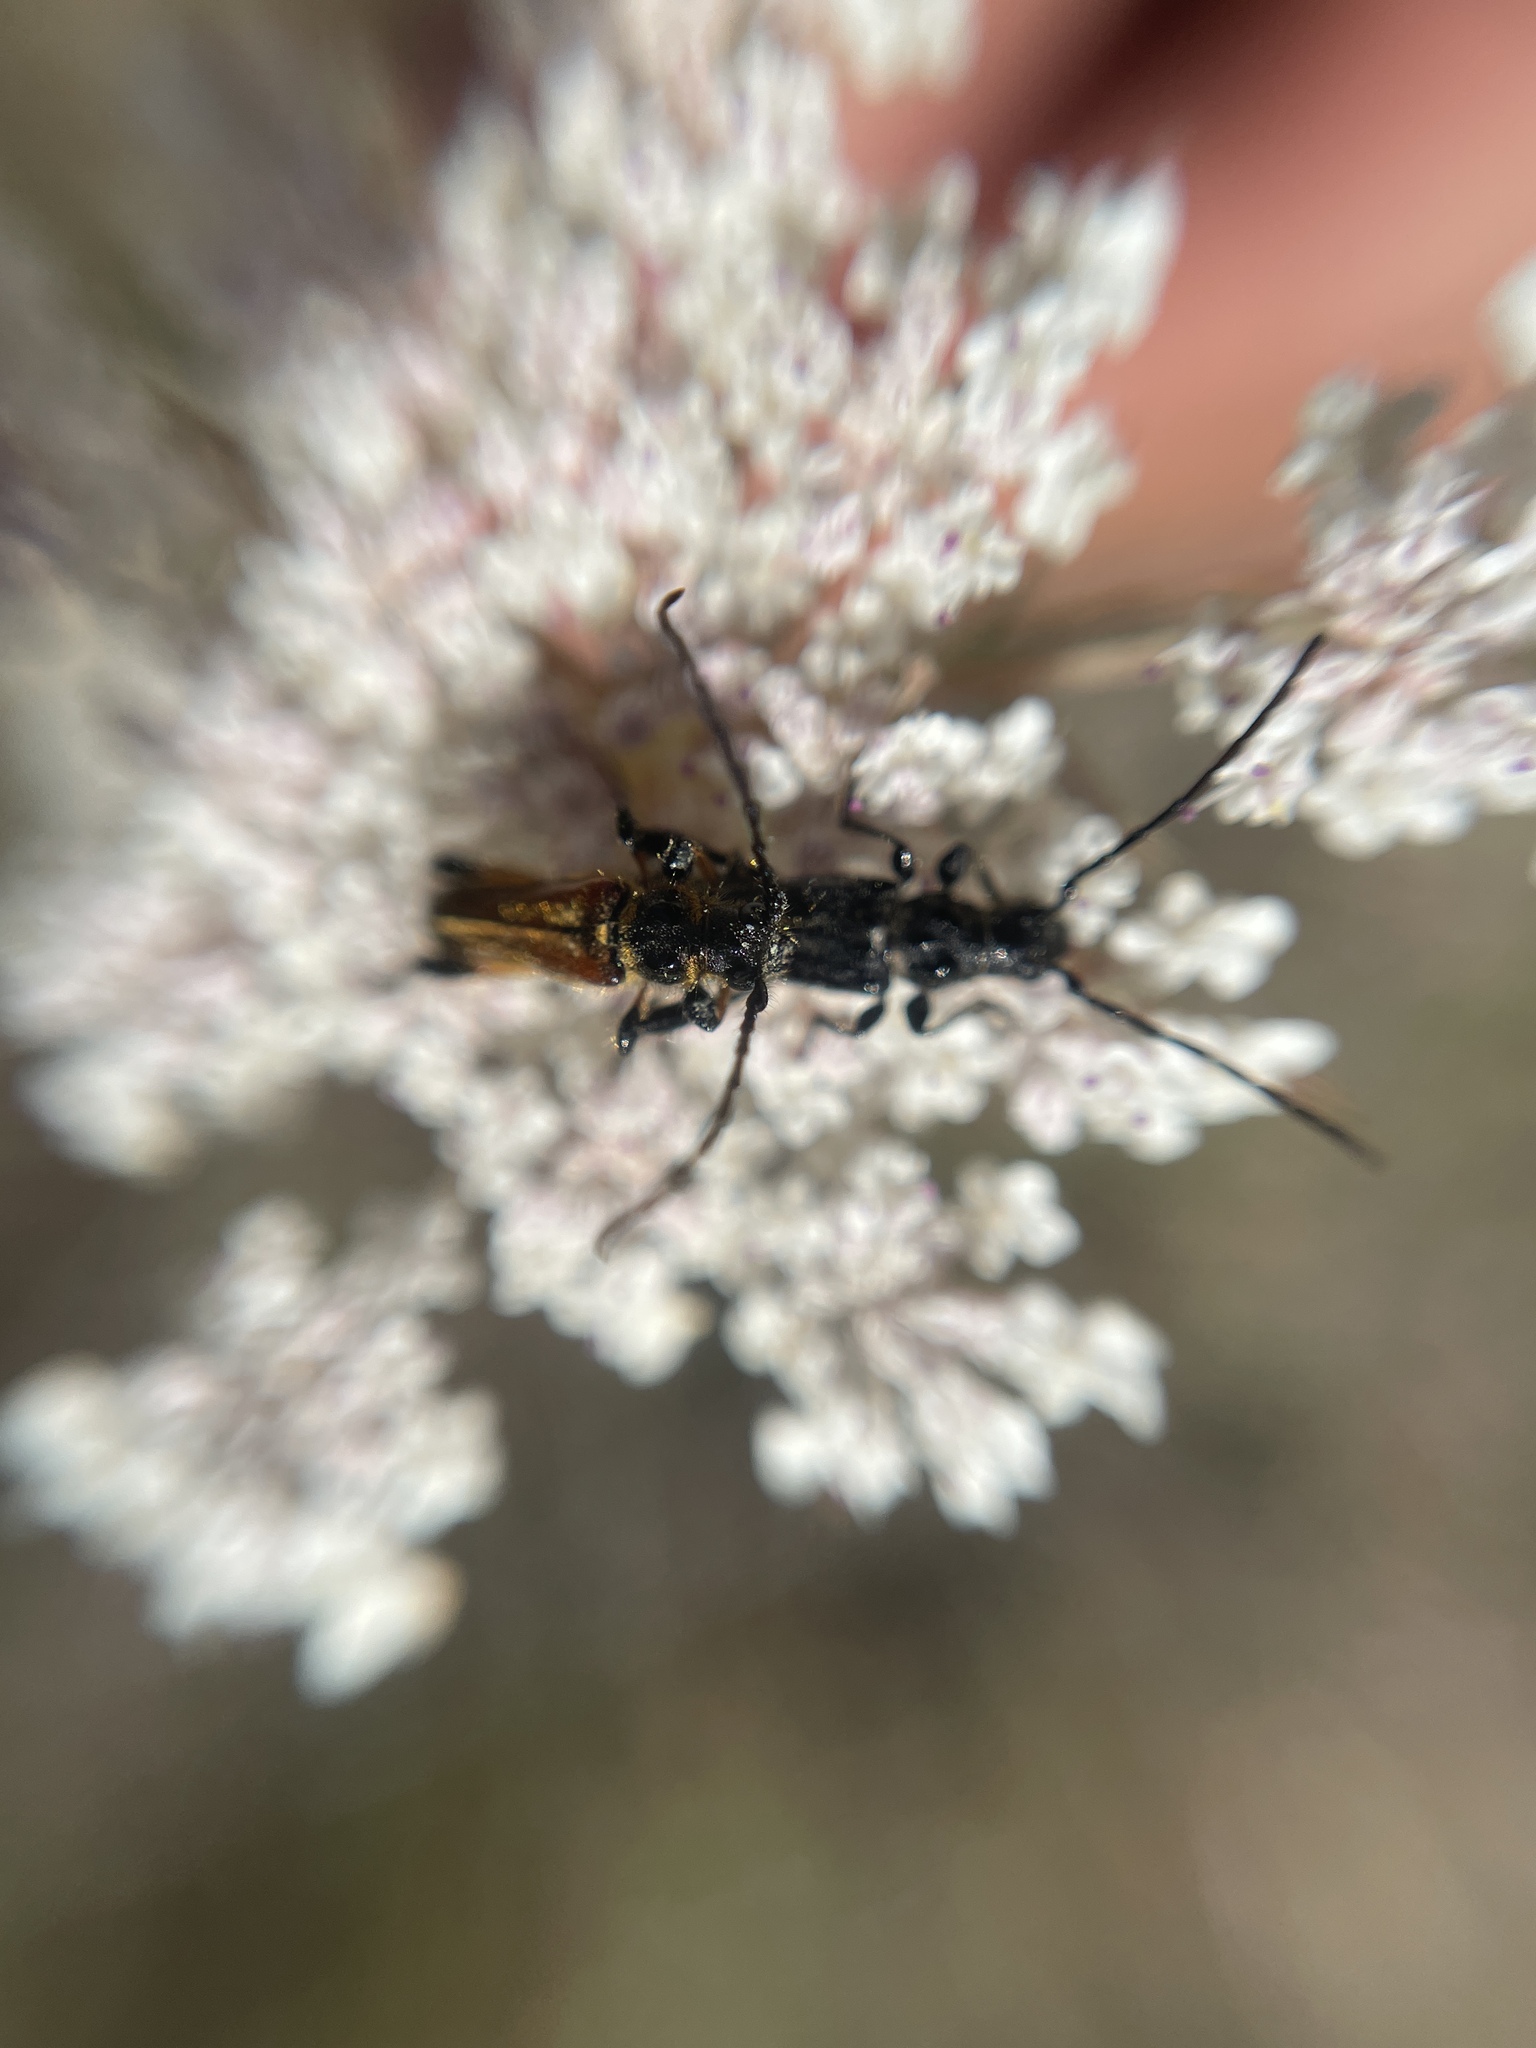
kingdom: Animalia
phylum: Arthropoda
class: Insecta
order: Coleoptera
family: Cerambycidae
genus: Stenopterus
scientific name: Stenopterus ater
